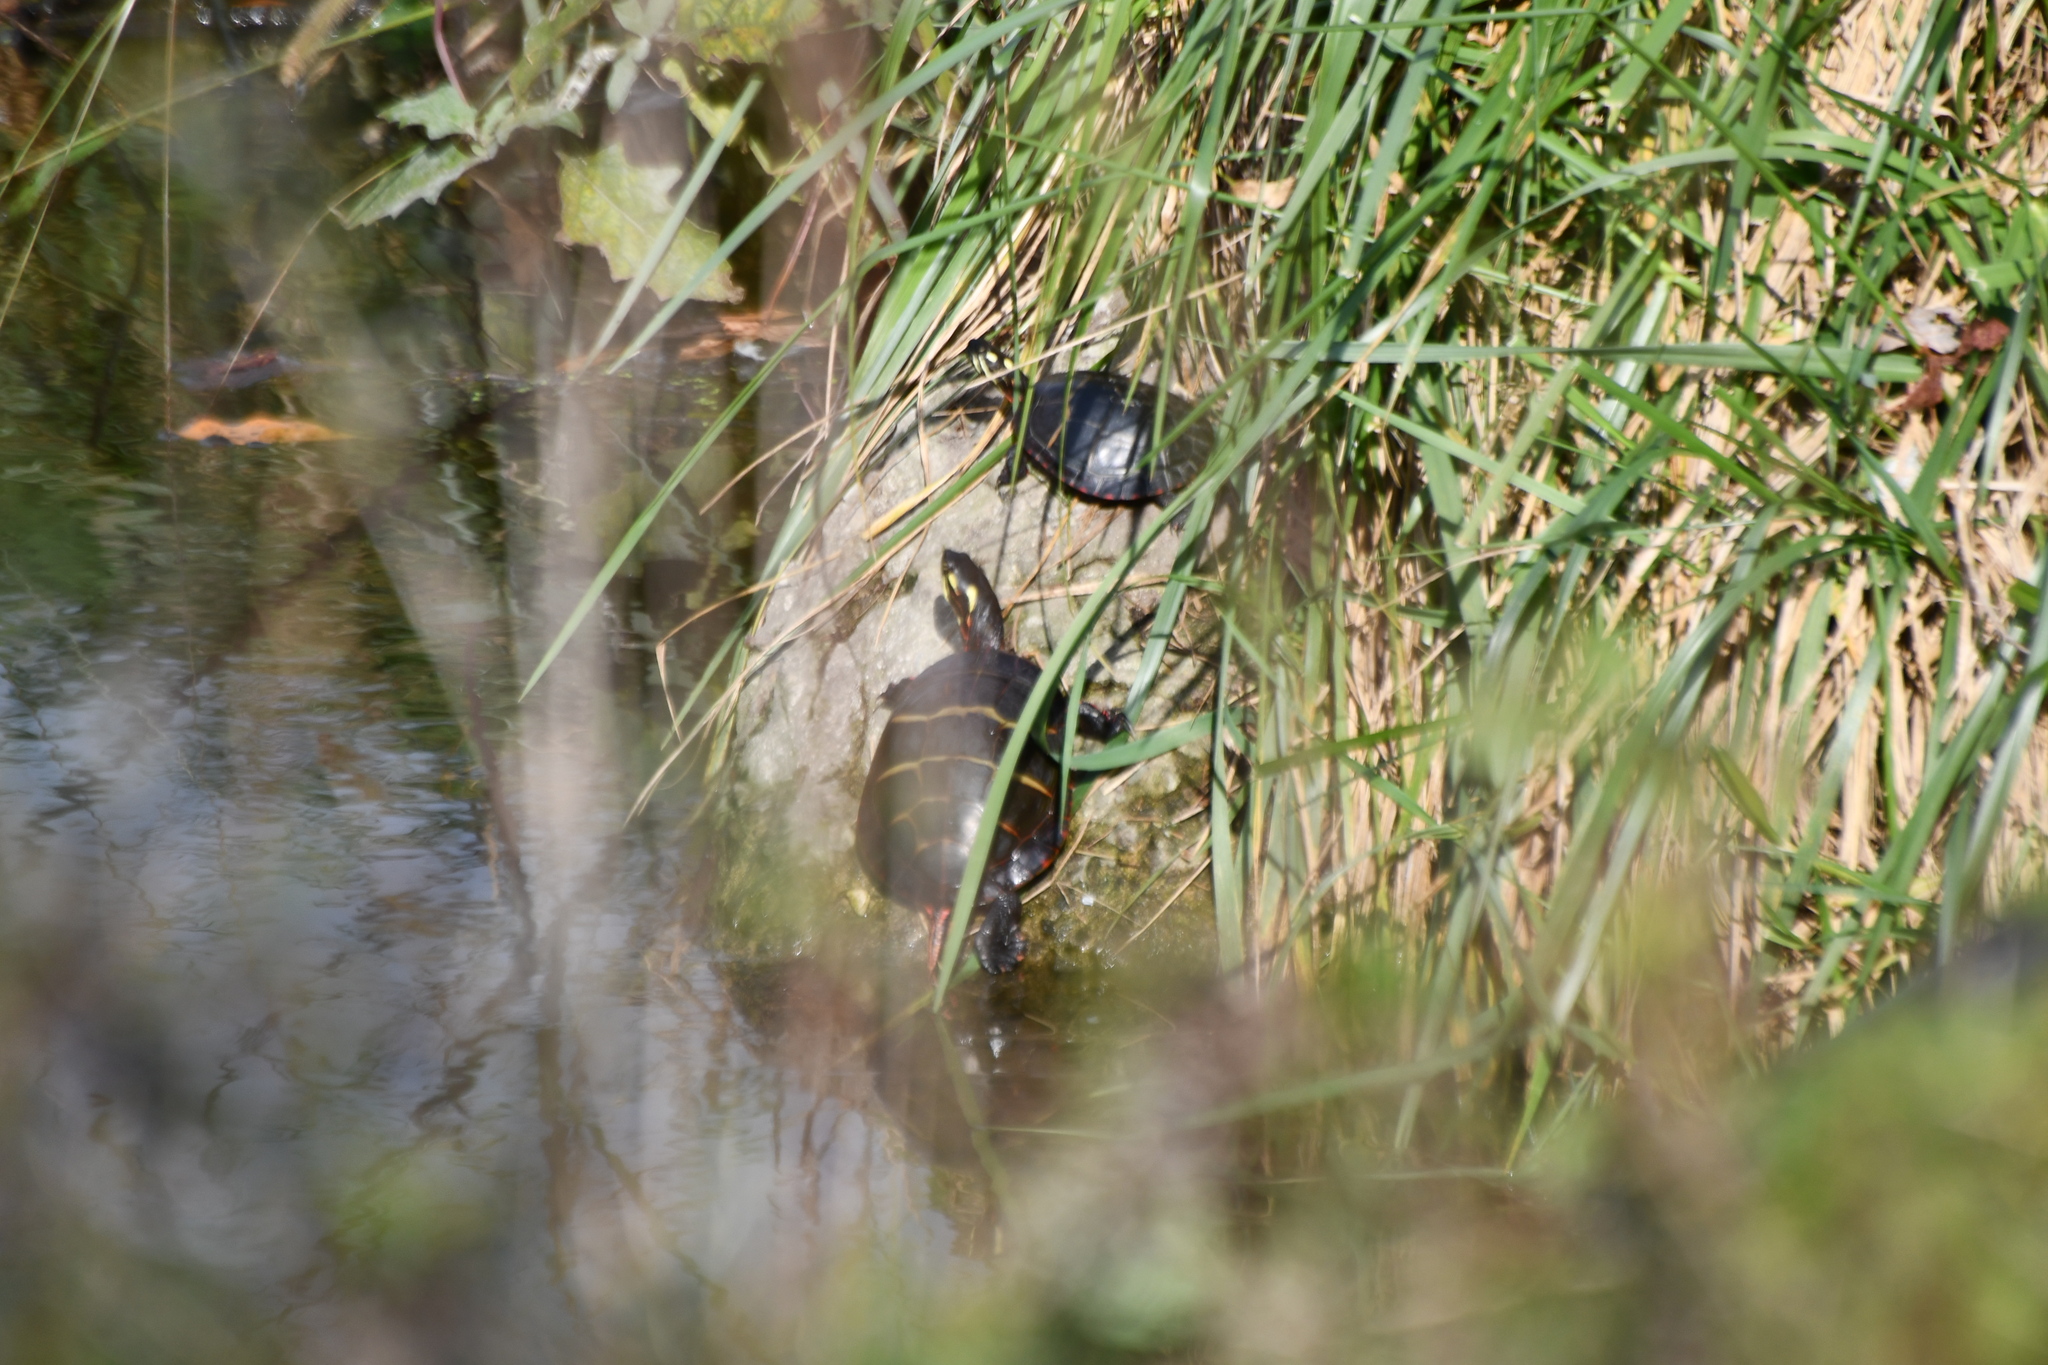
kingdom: Animalia
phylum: Chordata
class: Testudines
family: Emydidae
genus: Chrysemys
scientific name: Chrysemys picta
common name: Painted turtle
